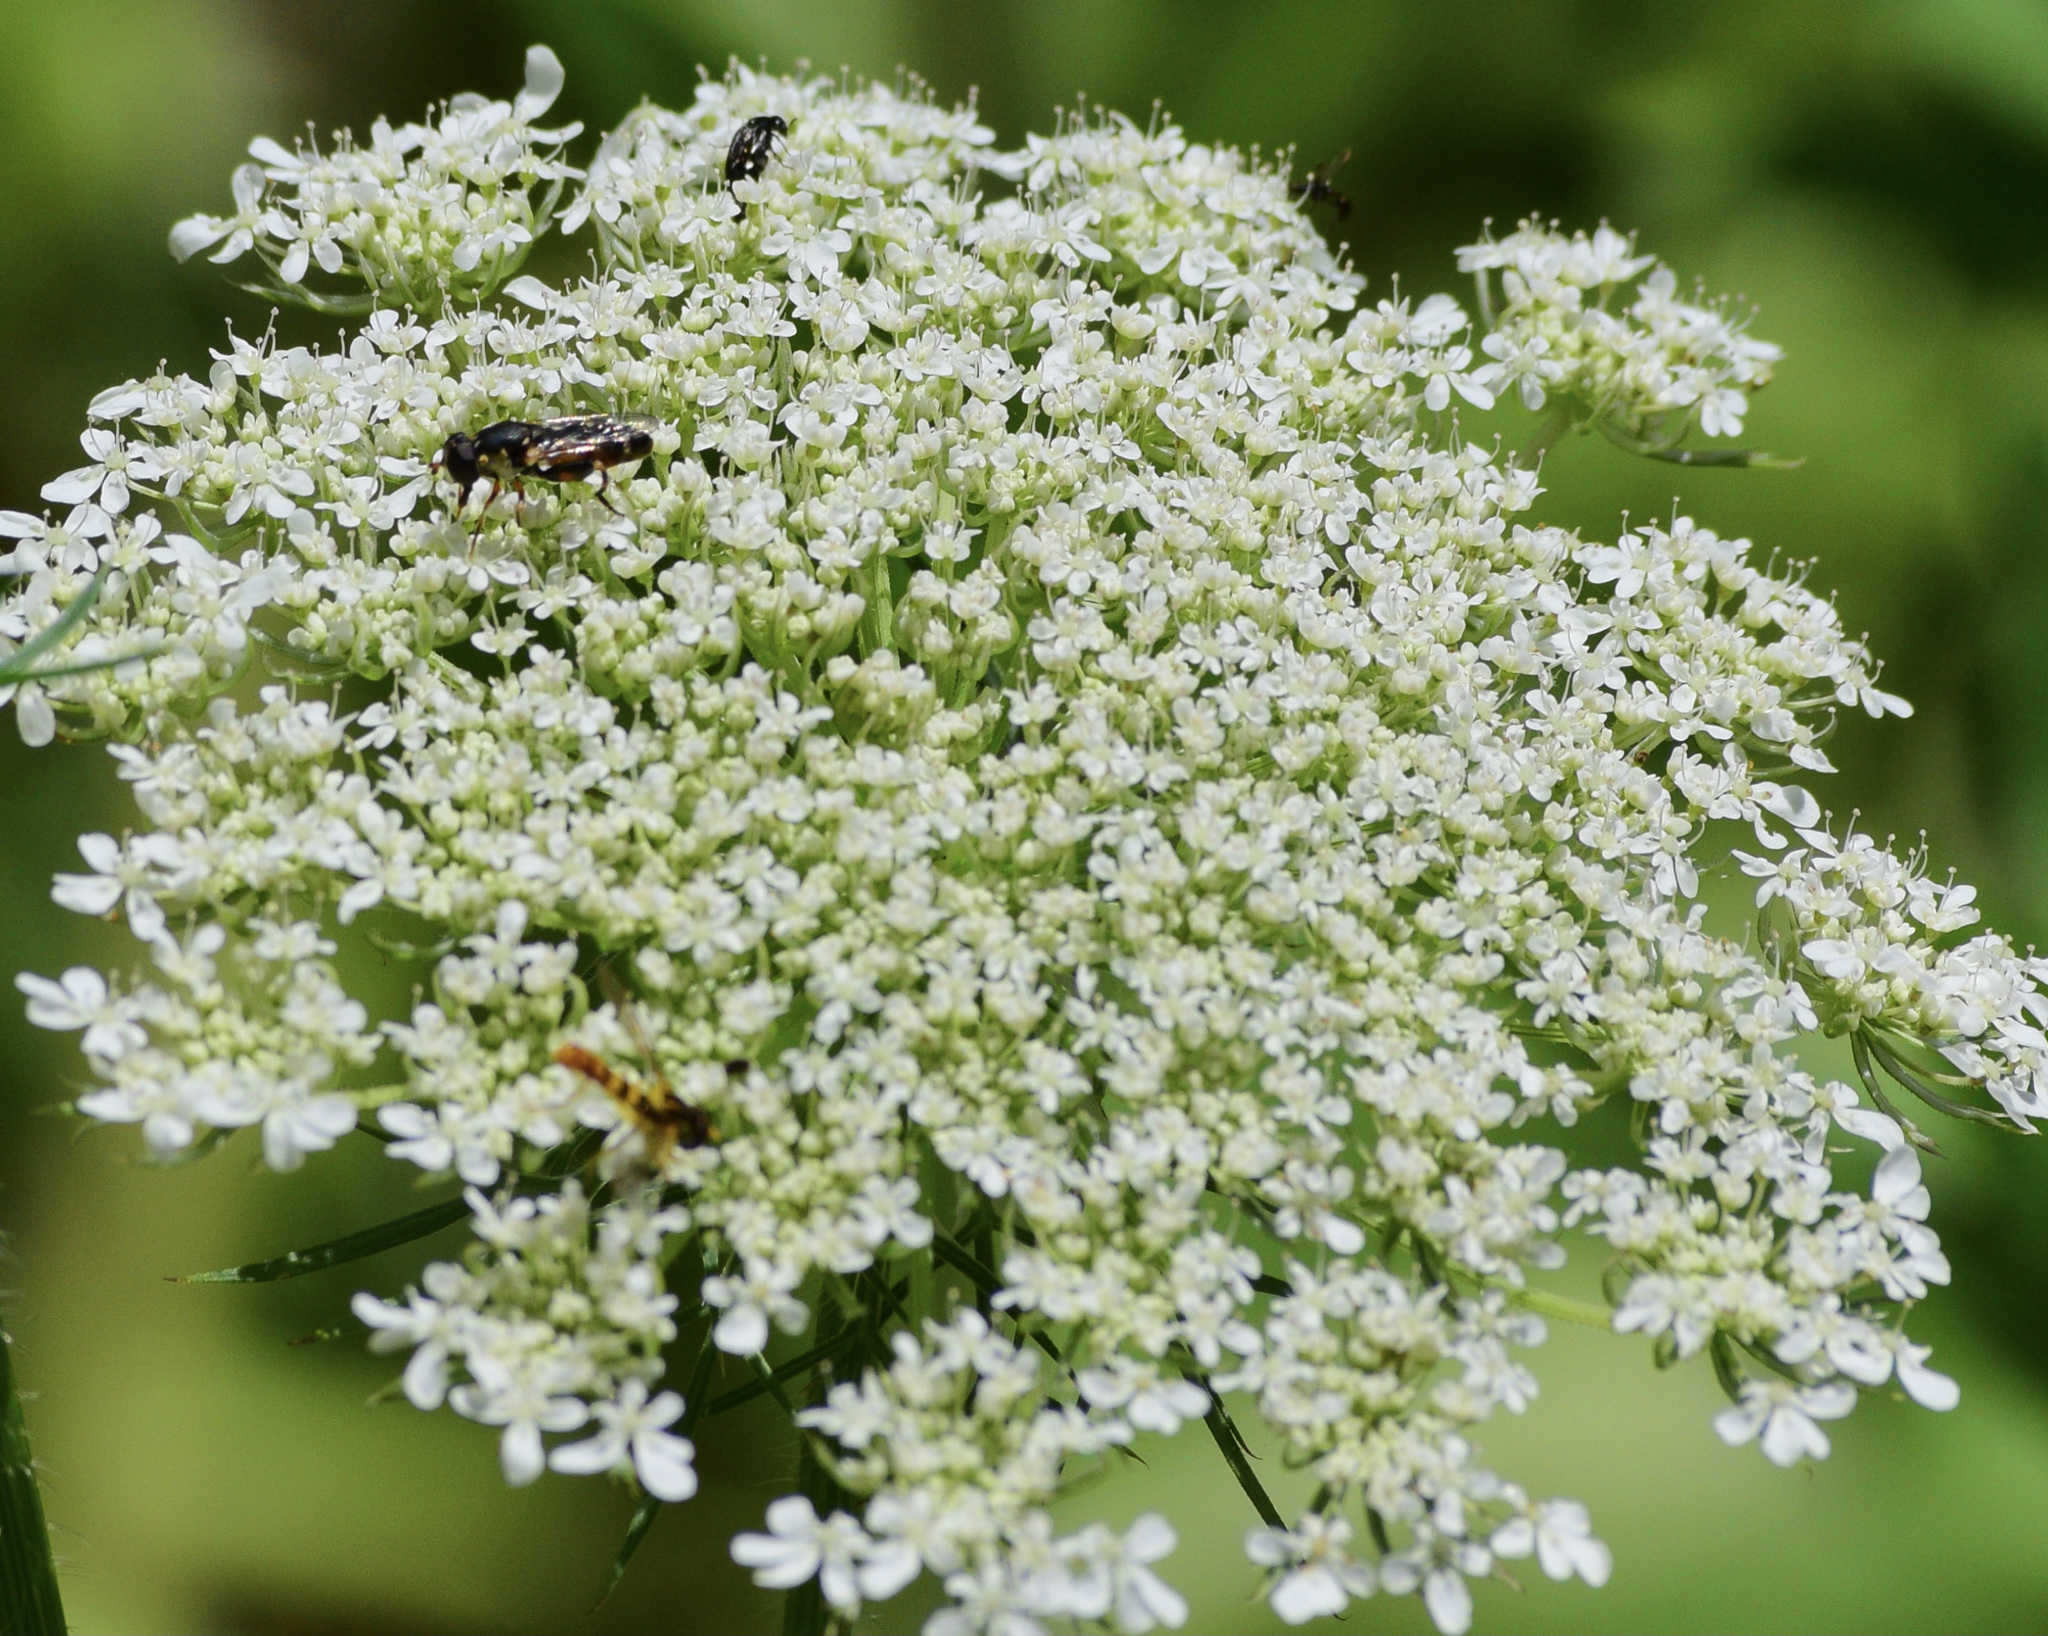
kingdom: Animalia
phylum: Arthropoda
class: Insecta
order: Diptera
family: Syrphidae
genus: Syritta
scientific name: Syritta pipiens
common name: Hover fly
